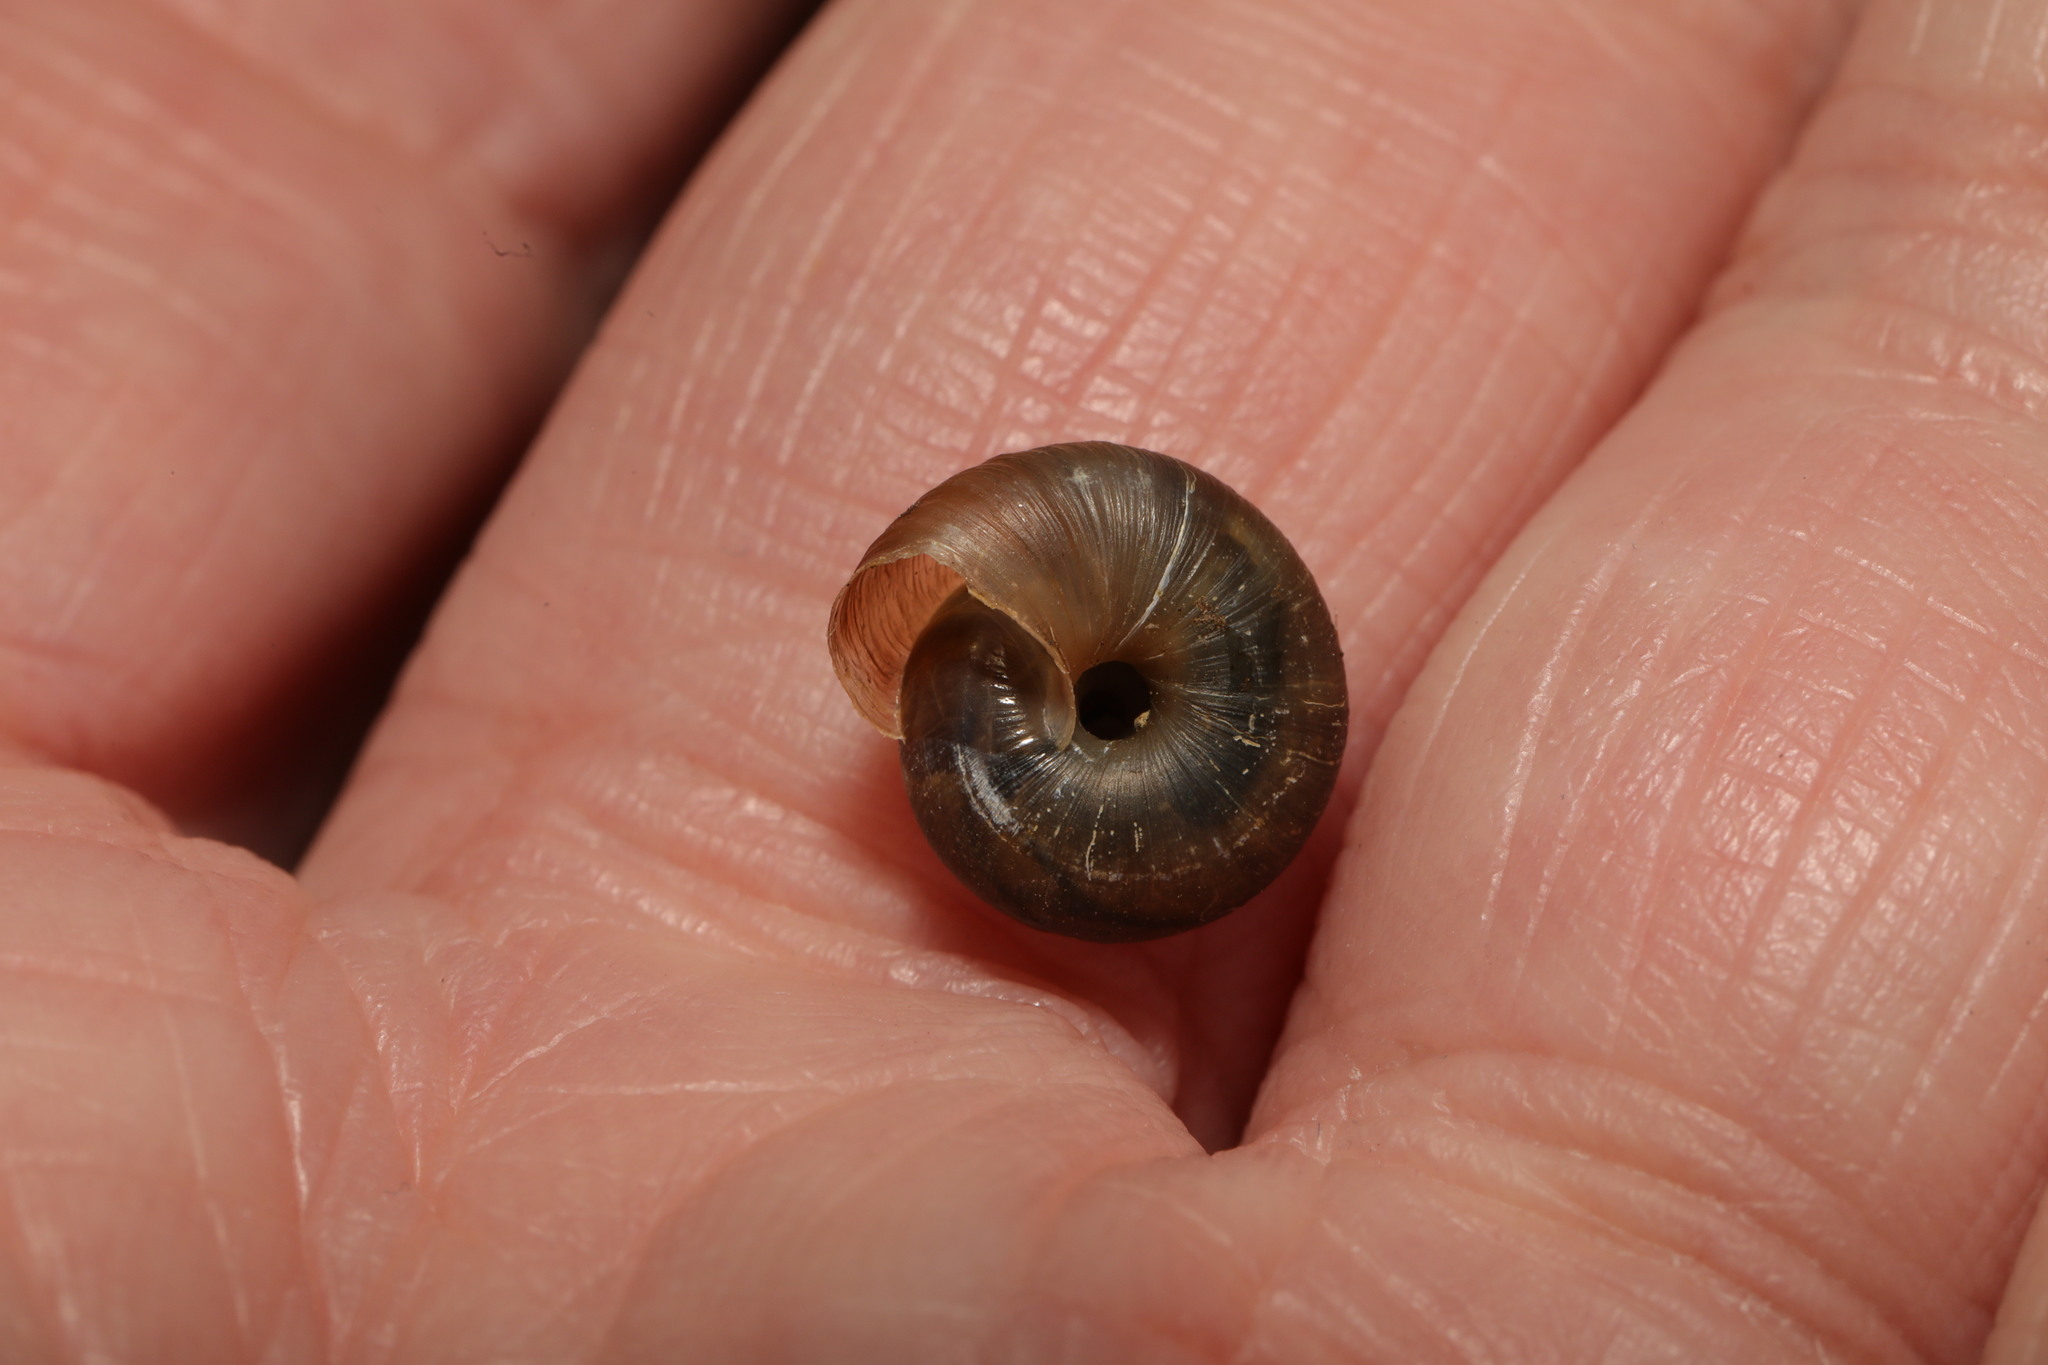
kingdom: Animalia
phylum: Mollusca
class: Gastropoda
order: Stylommatophora
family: Hygromiidae
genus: Trochulus
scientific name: Trochulus striolatus
